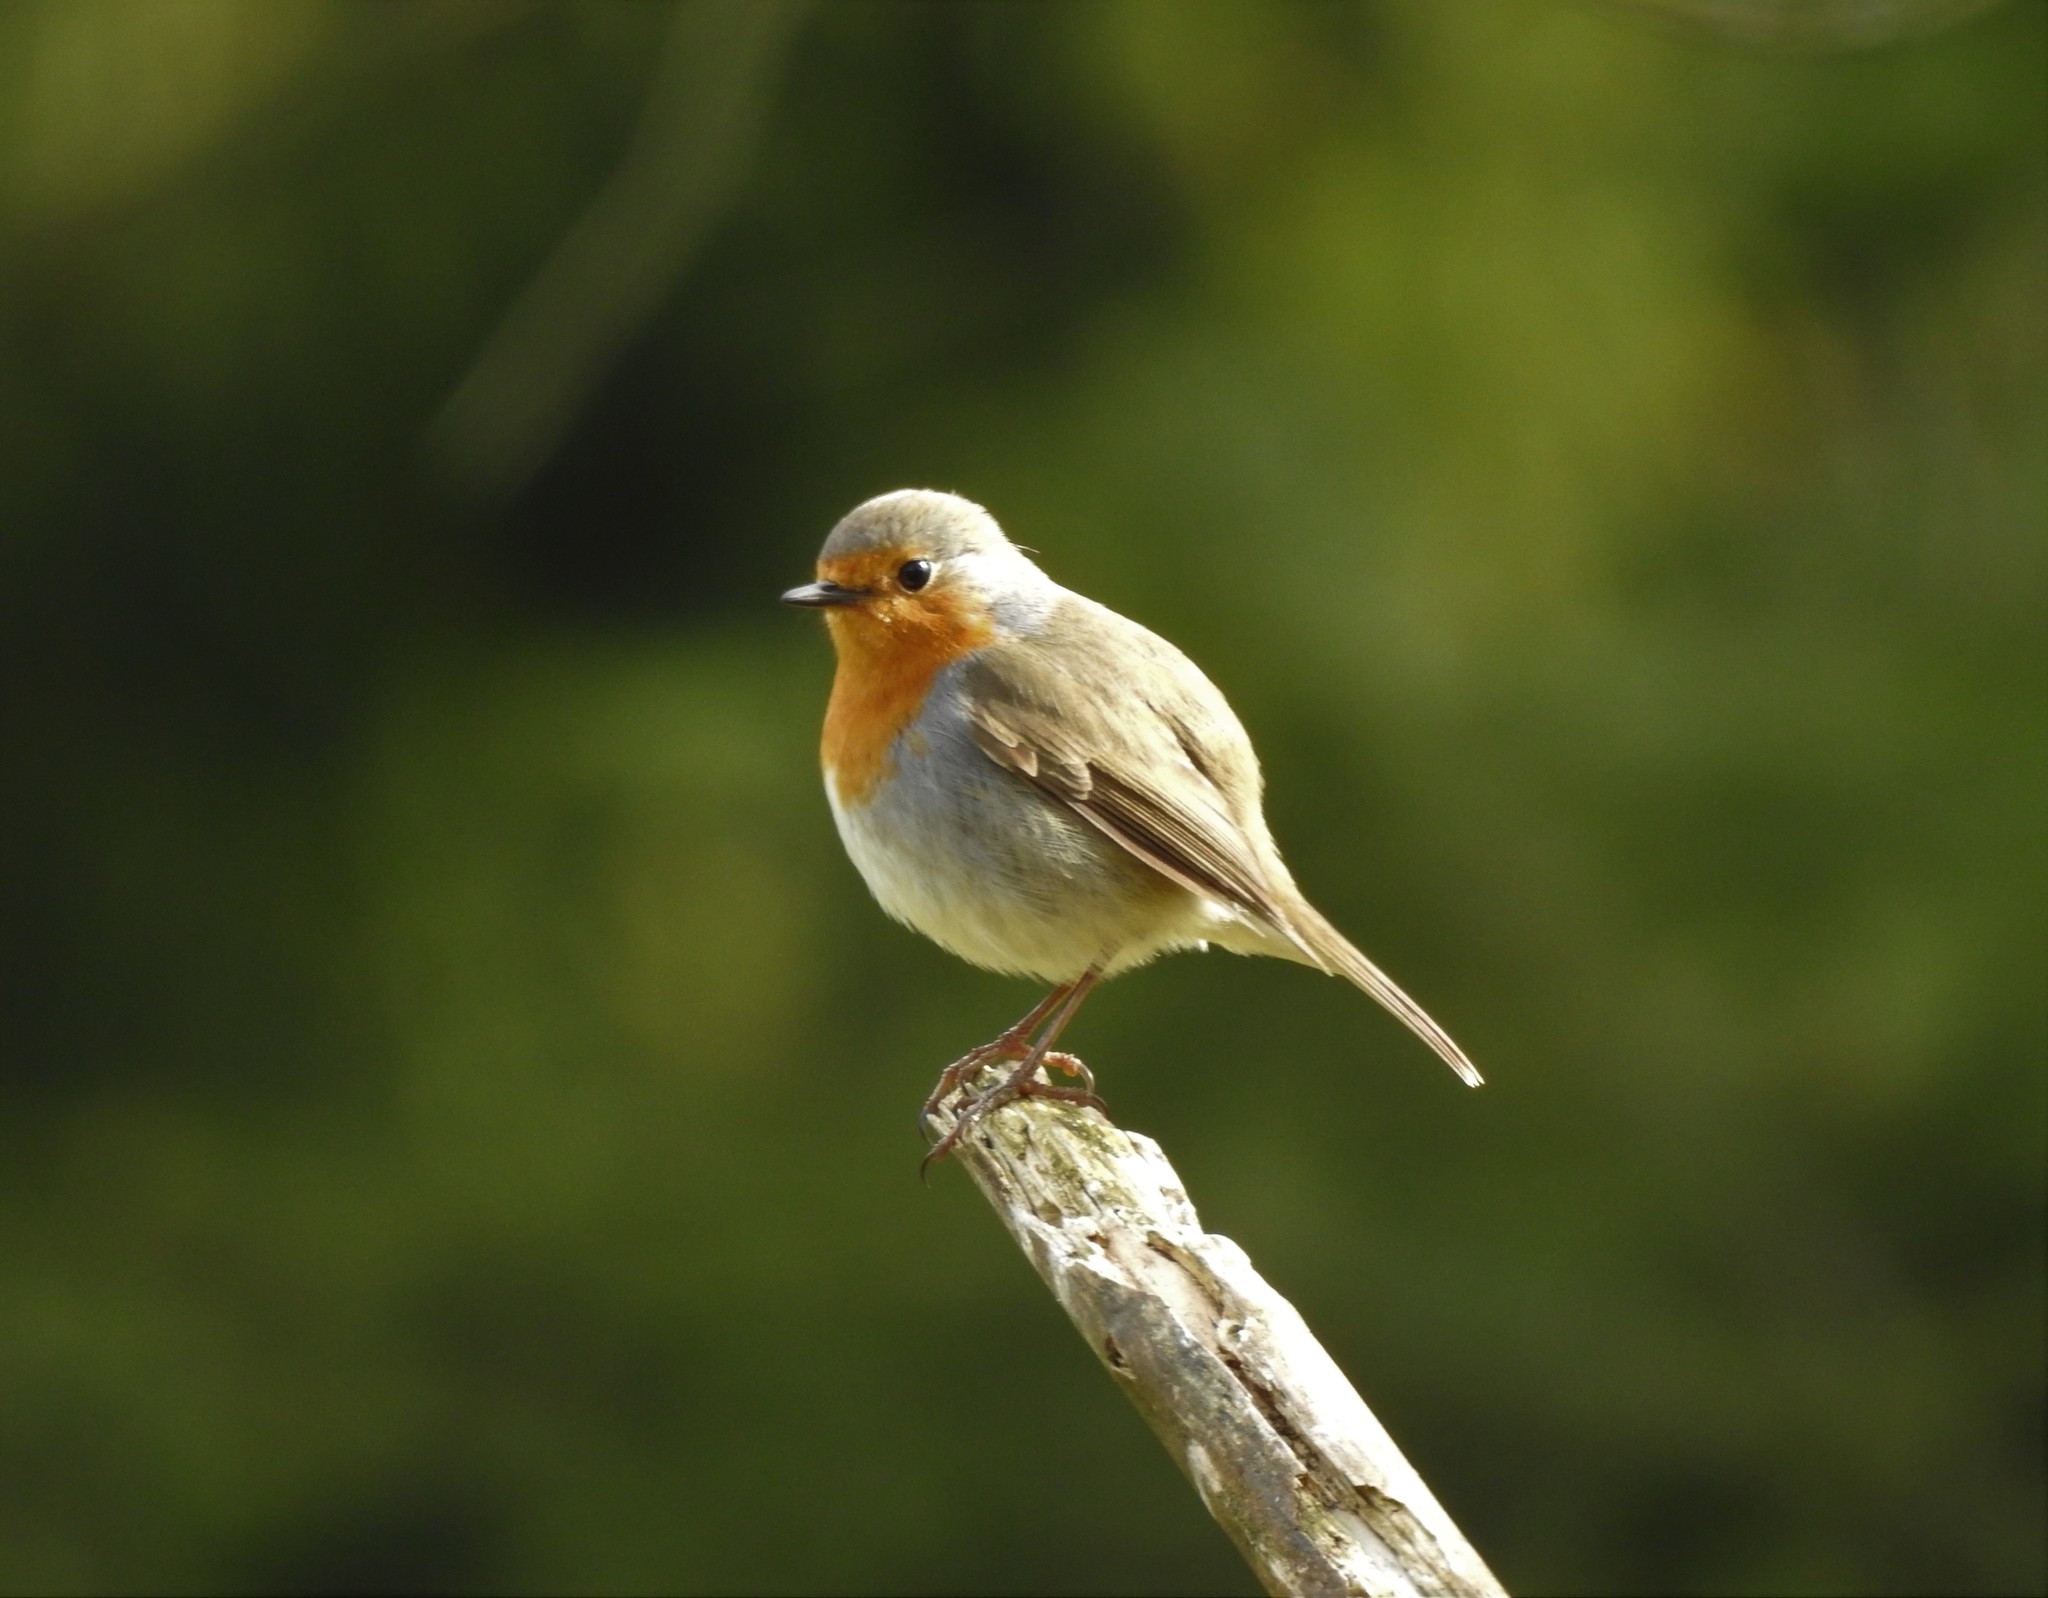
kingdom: Animalia
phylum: Chordata
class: Aves
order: Passeriformes
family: Muscicapidae
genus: Erithacus
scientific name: Erithacus rubecula
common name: European robin
